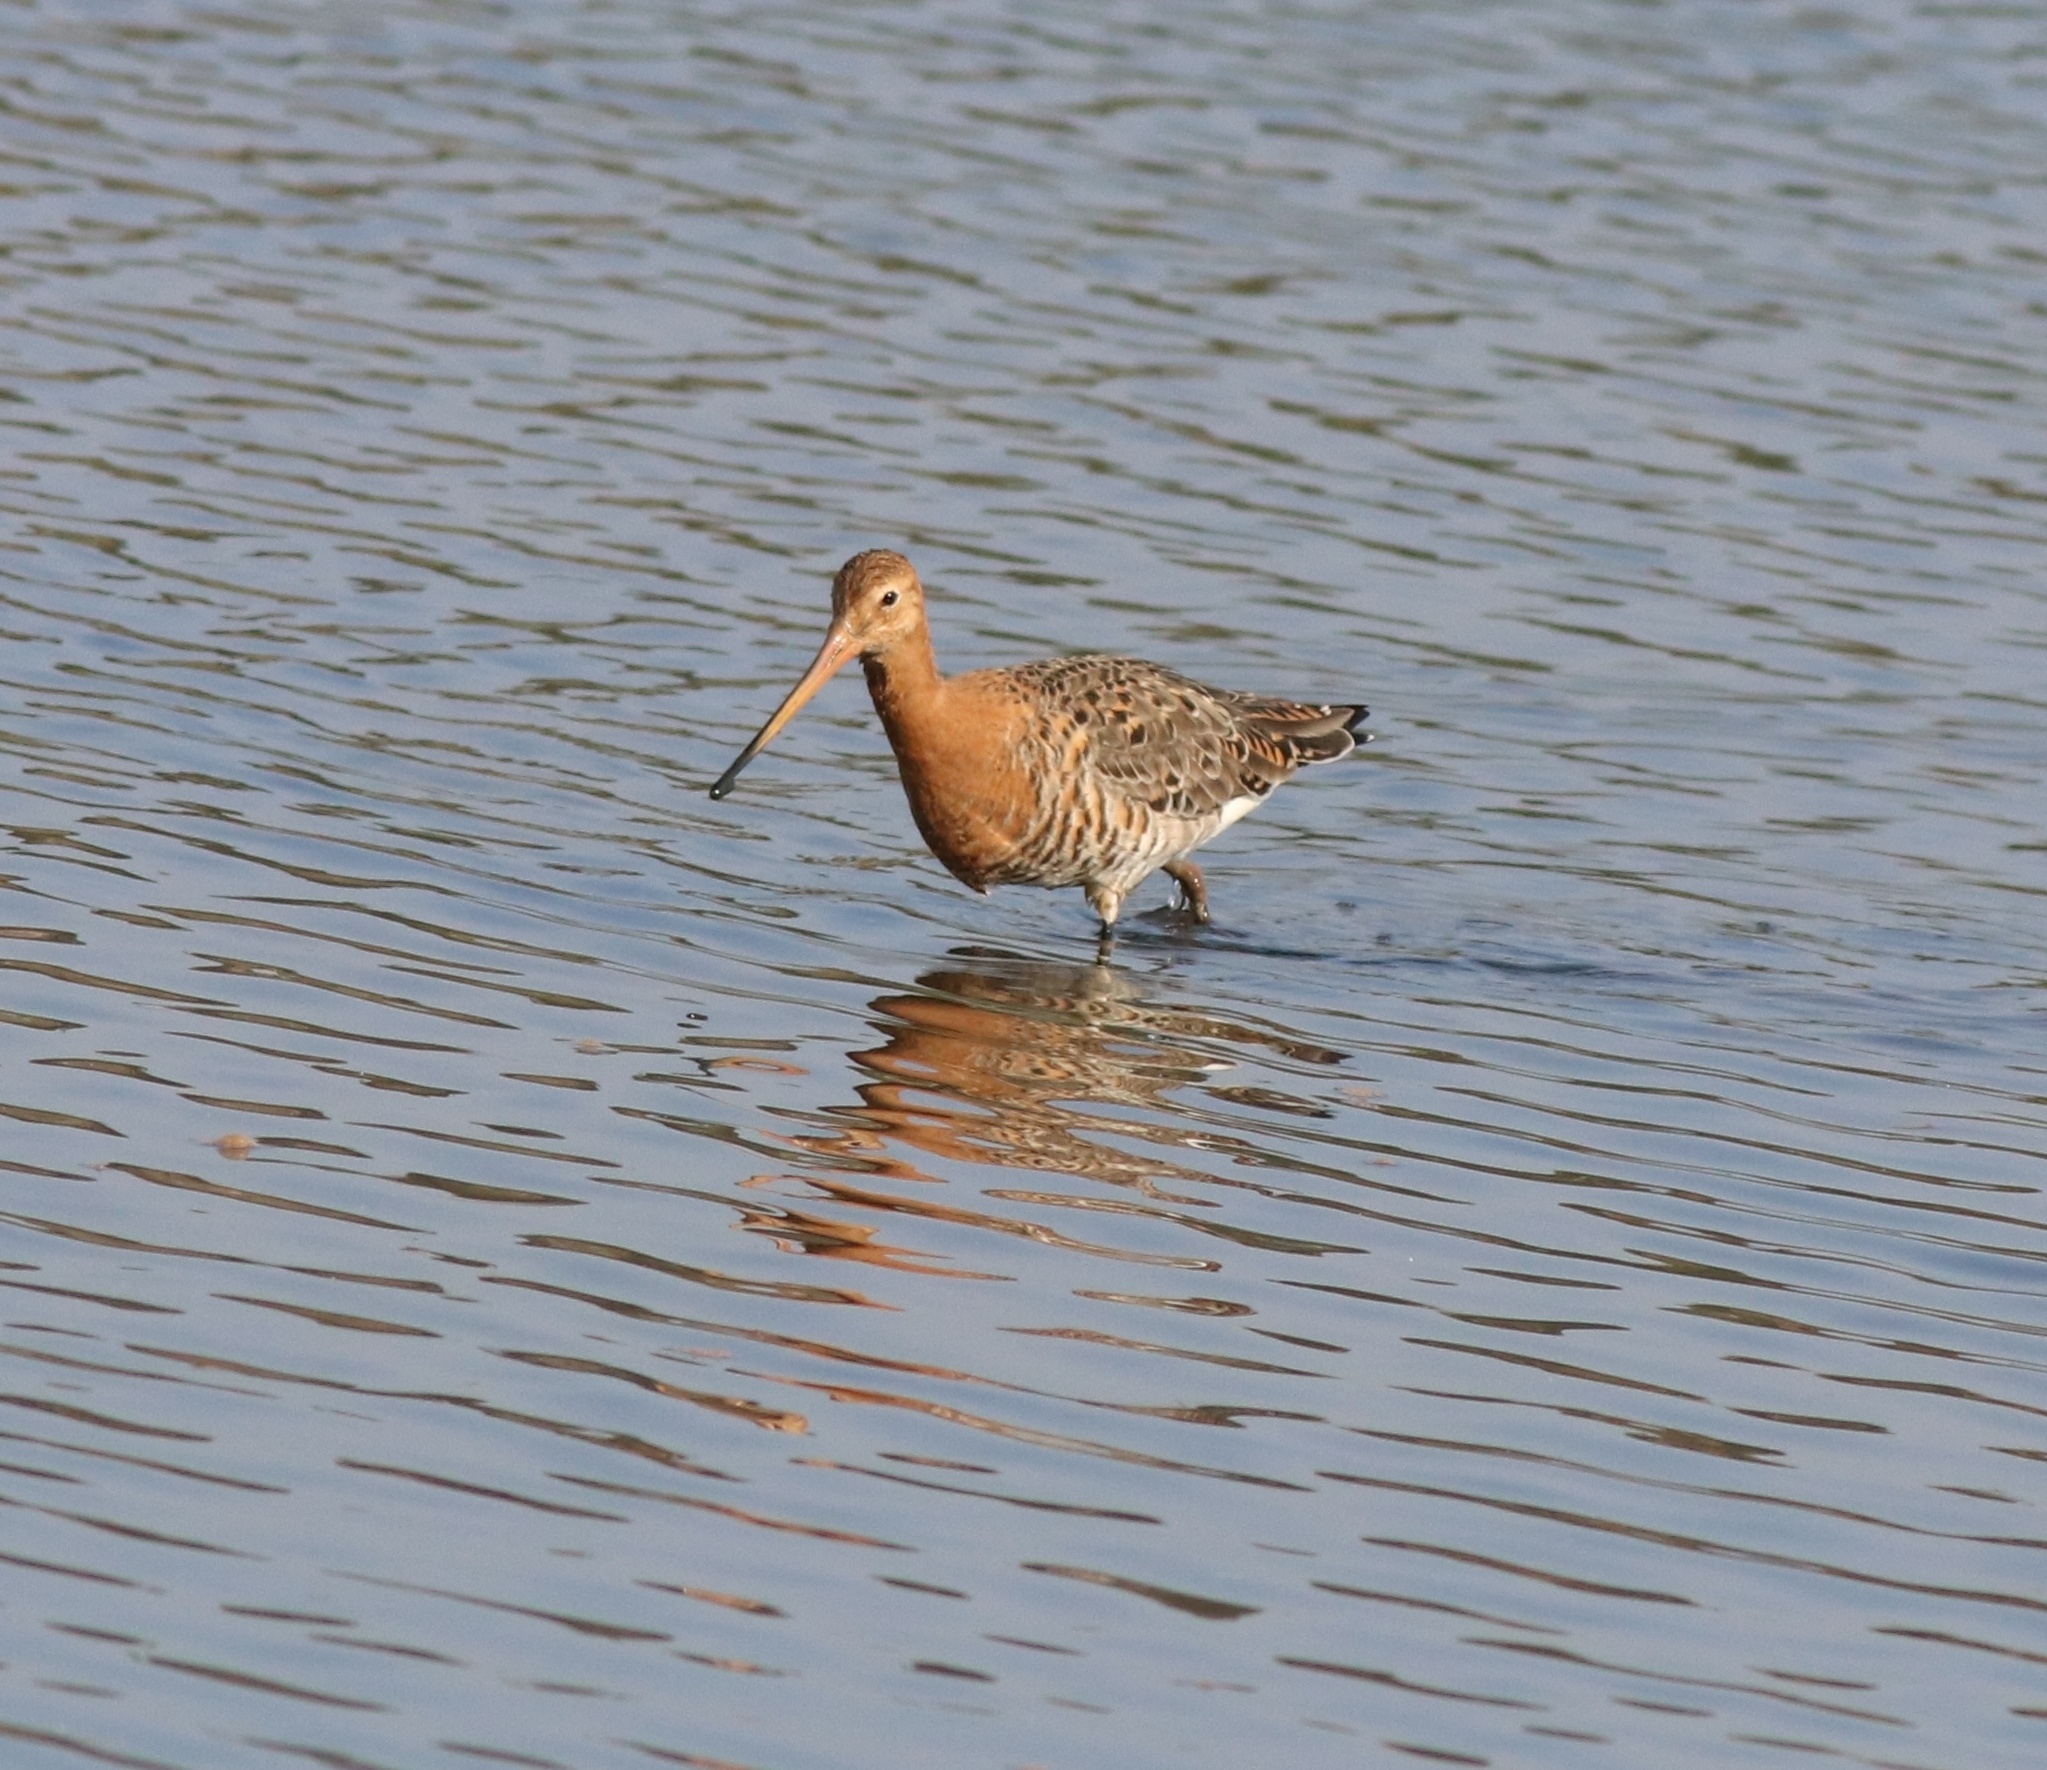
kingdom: Animalia
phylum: Chordata
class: Aves
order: Charadriiformes
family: Scolopacidae
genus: Limosa
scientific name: Limosa limosa
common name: Black-tailed godwit
